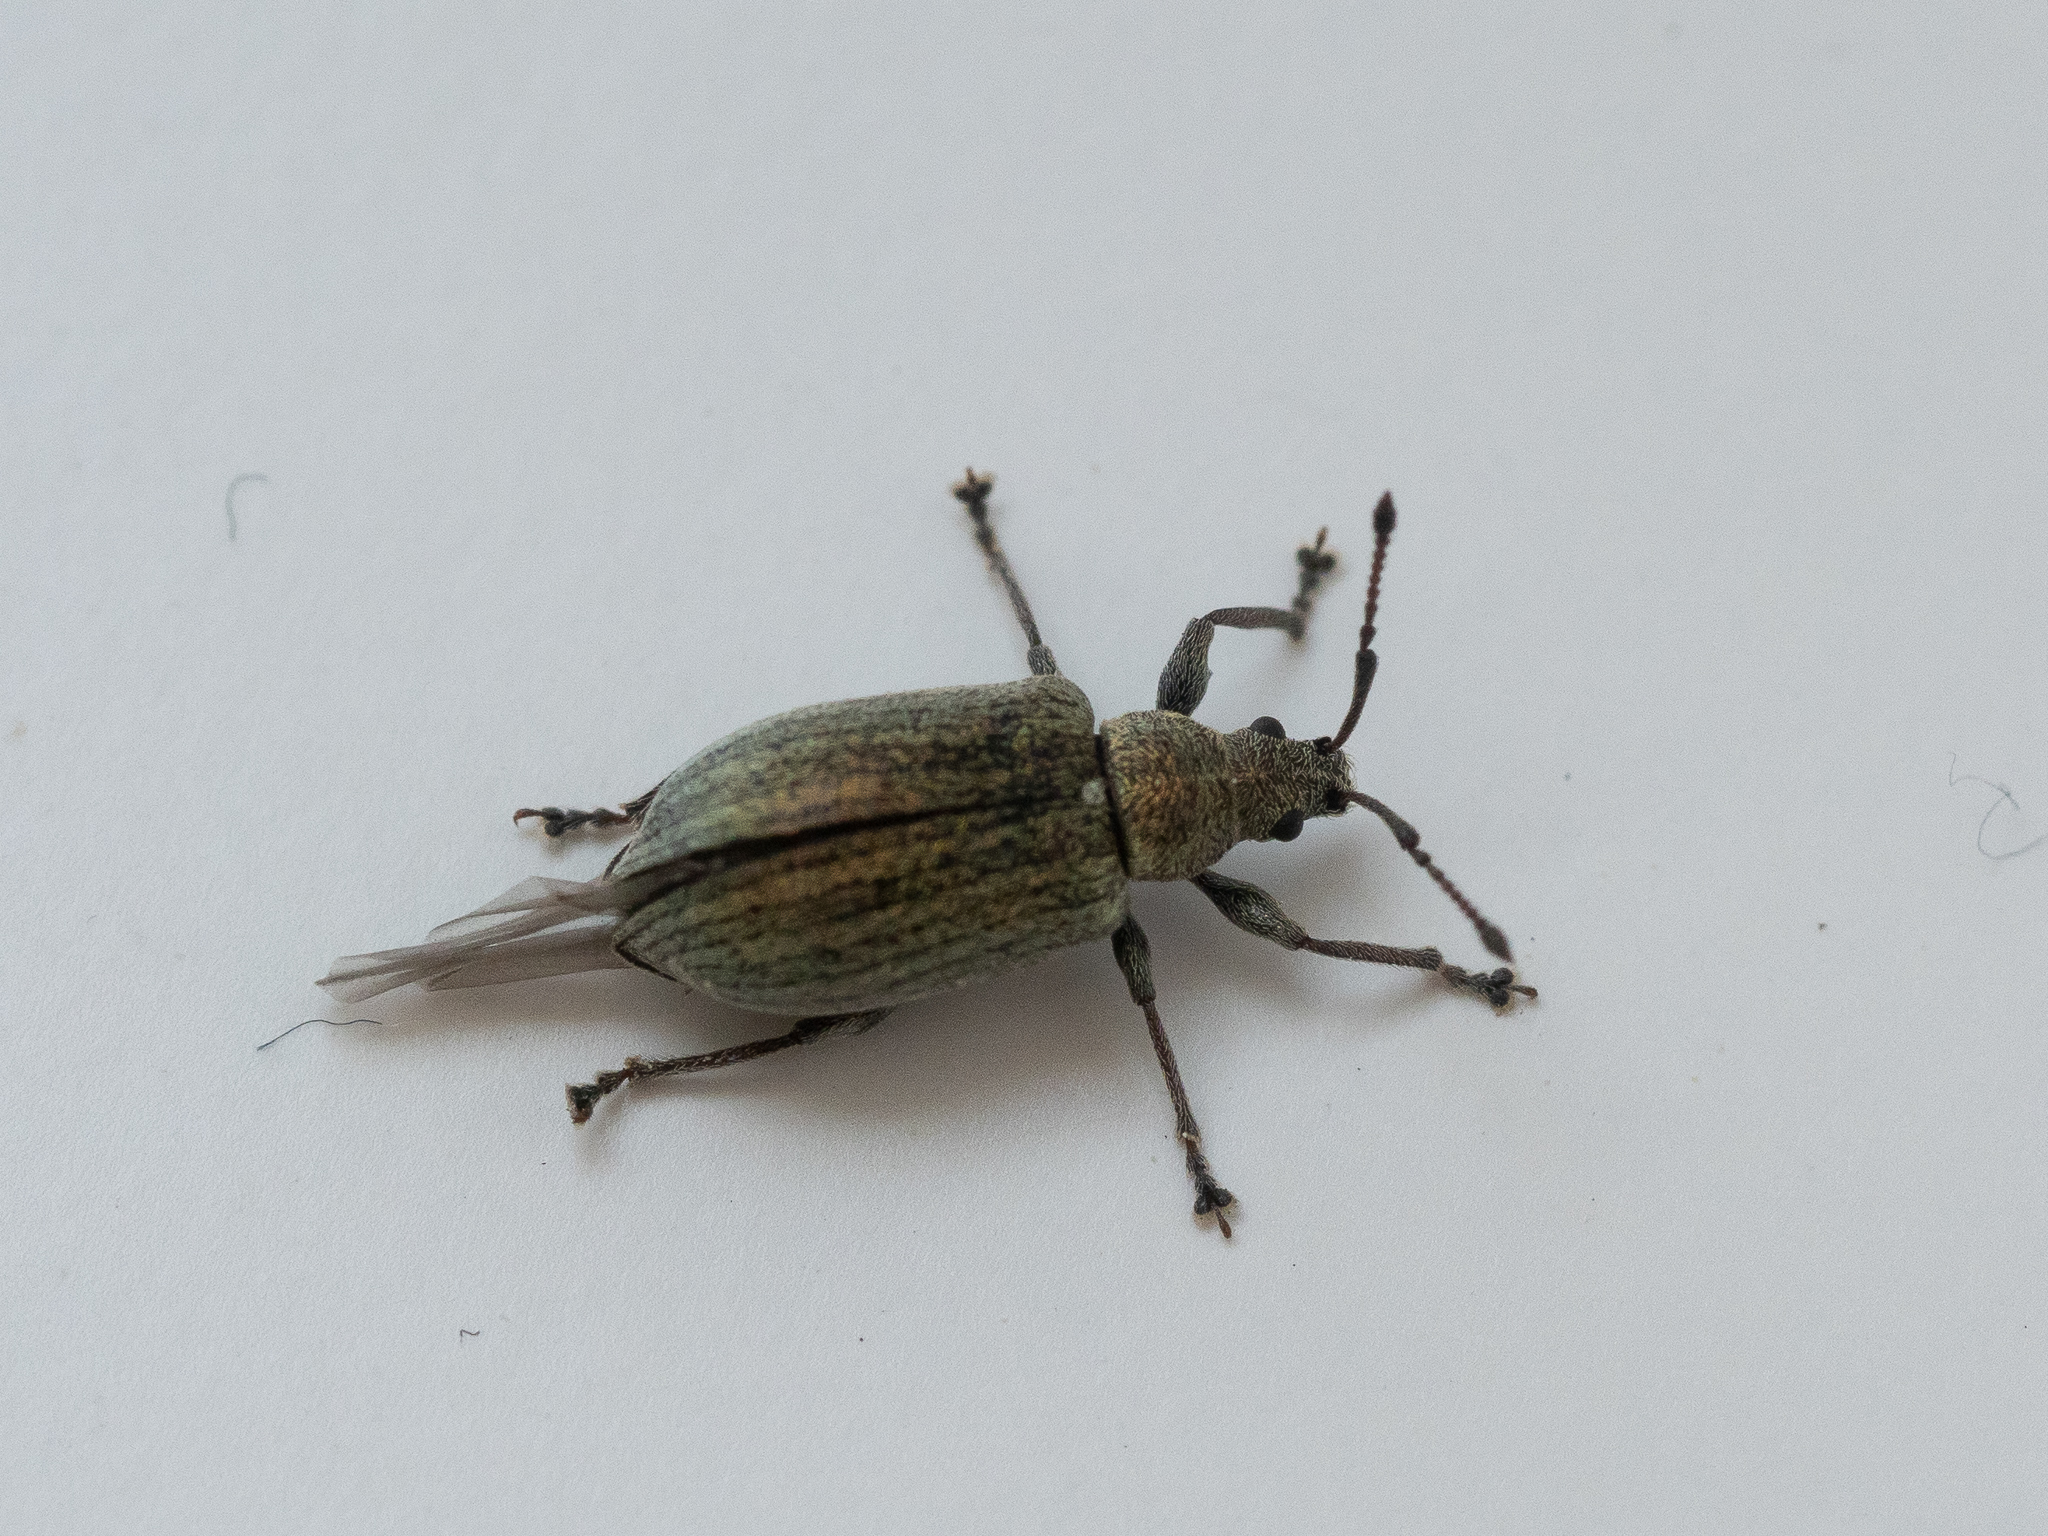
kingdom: Animalia
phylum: Arthropoda
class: Insecta
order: Coleoptera
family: Curculionidae
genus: Phyllobius
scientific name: Phyllobius pyri
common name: Common leaf weevil
